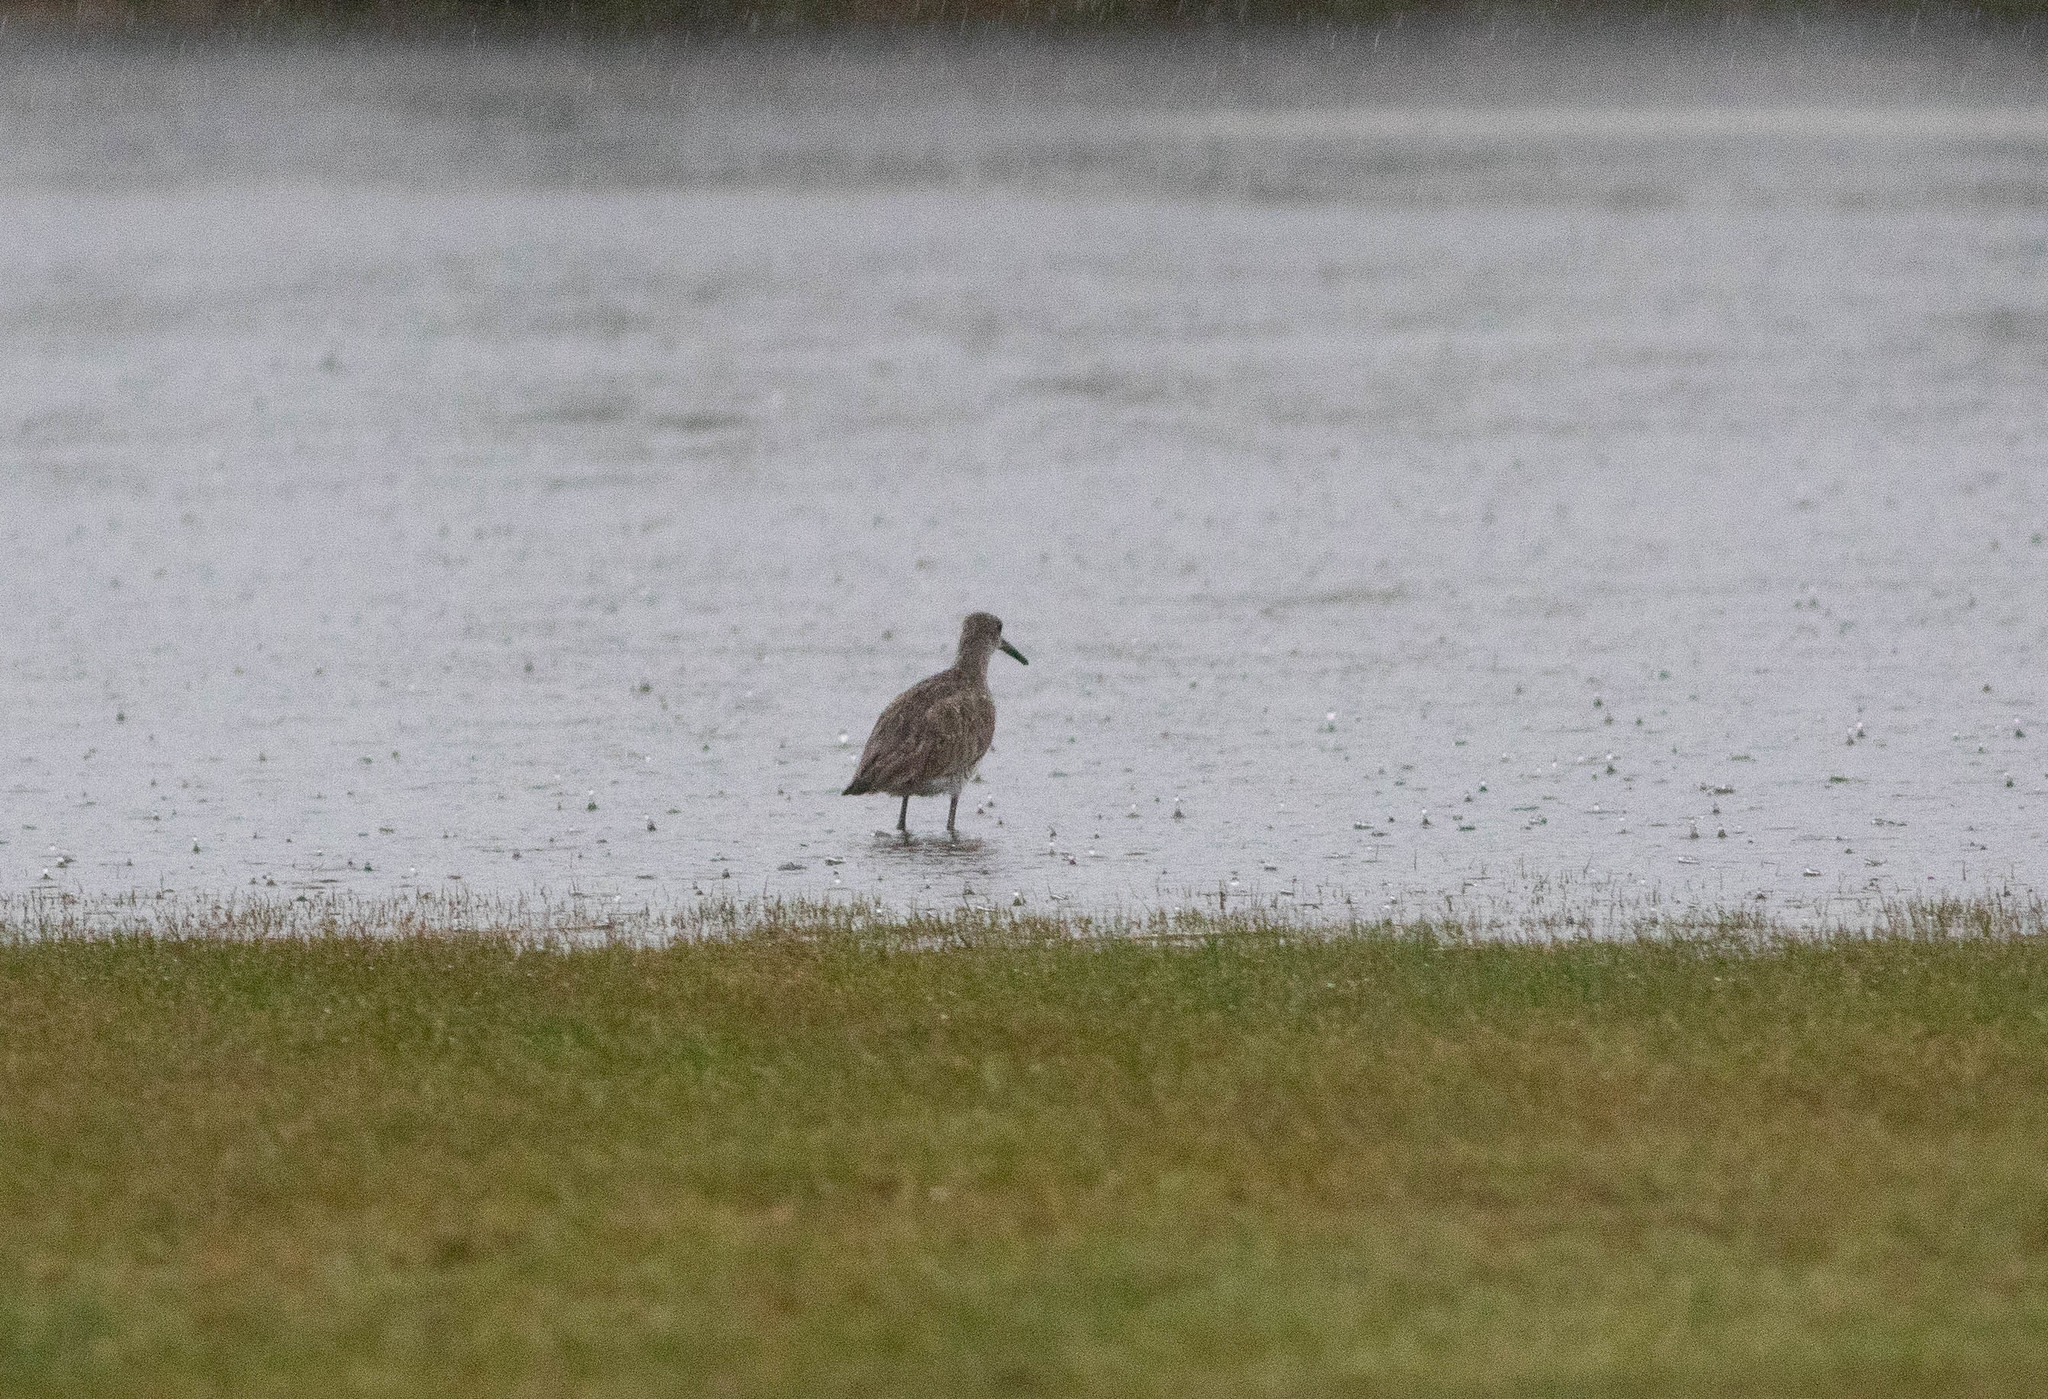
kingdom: Animalia
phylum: Chordata
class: Aves
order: Charadriiformes
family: Scolopacidae
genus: Tringa
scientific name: Tringa semipalmata
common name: Willet
